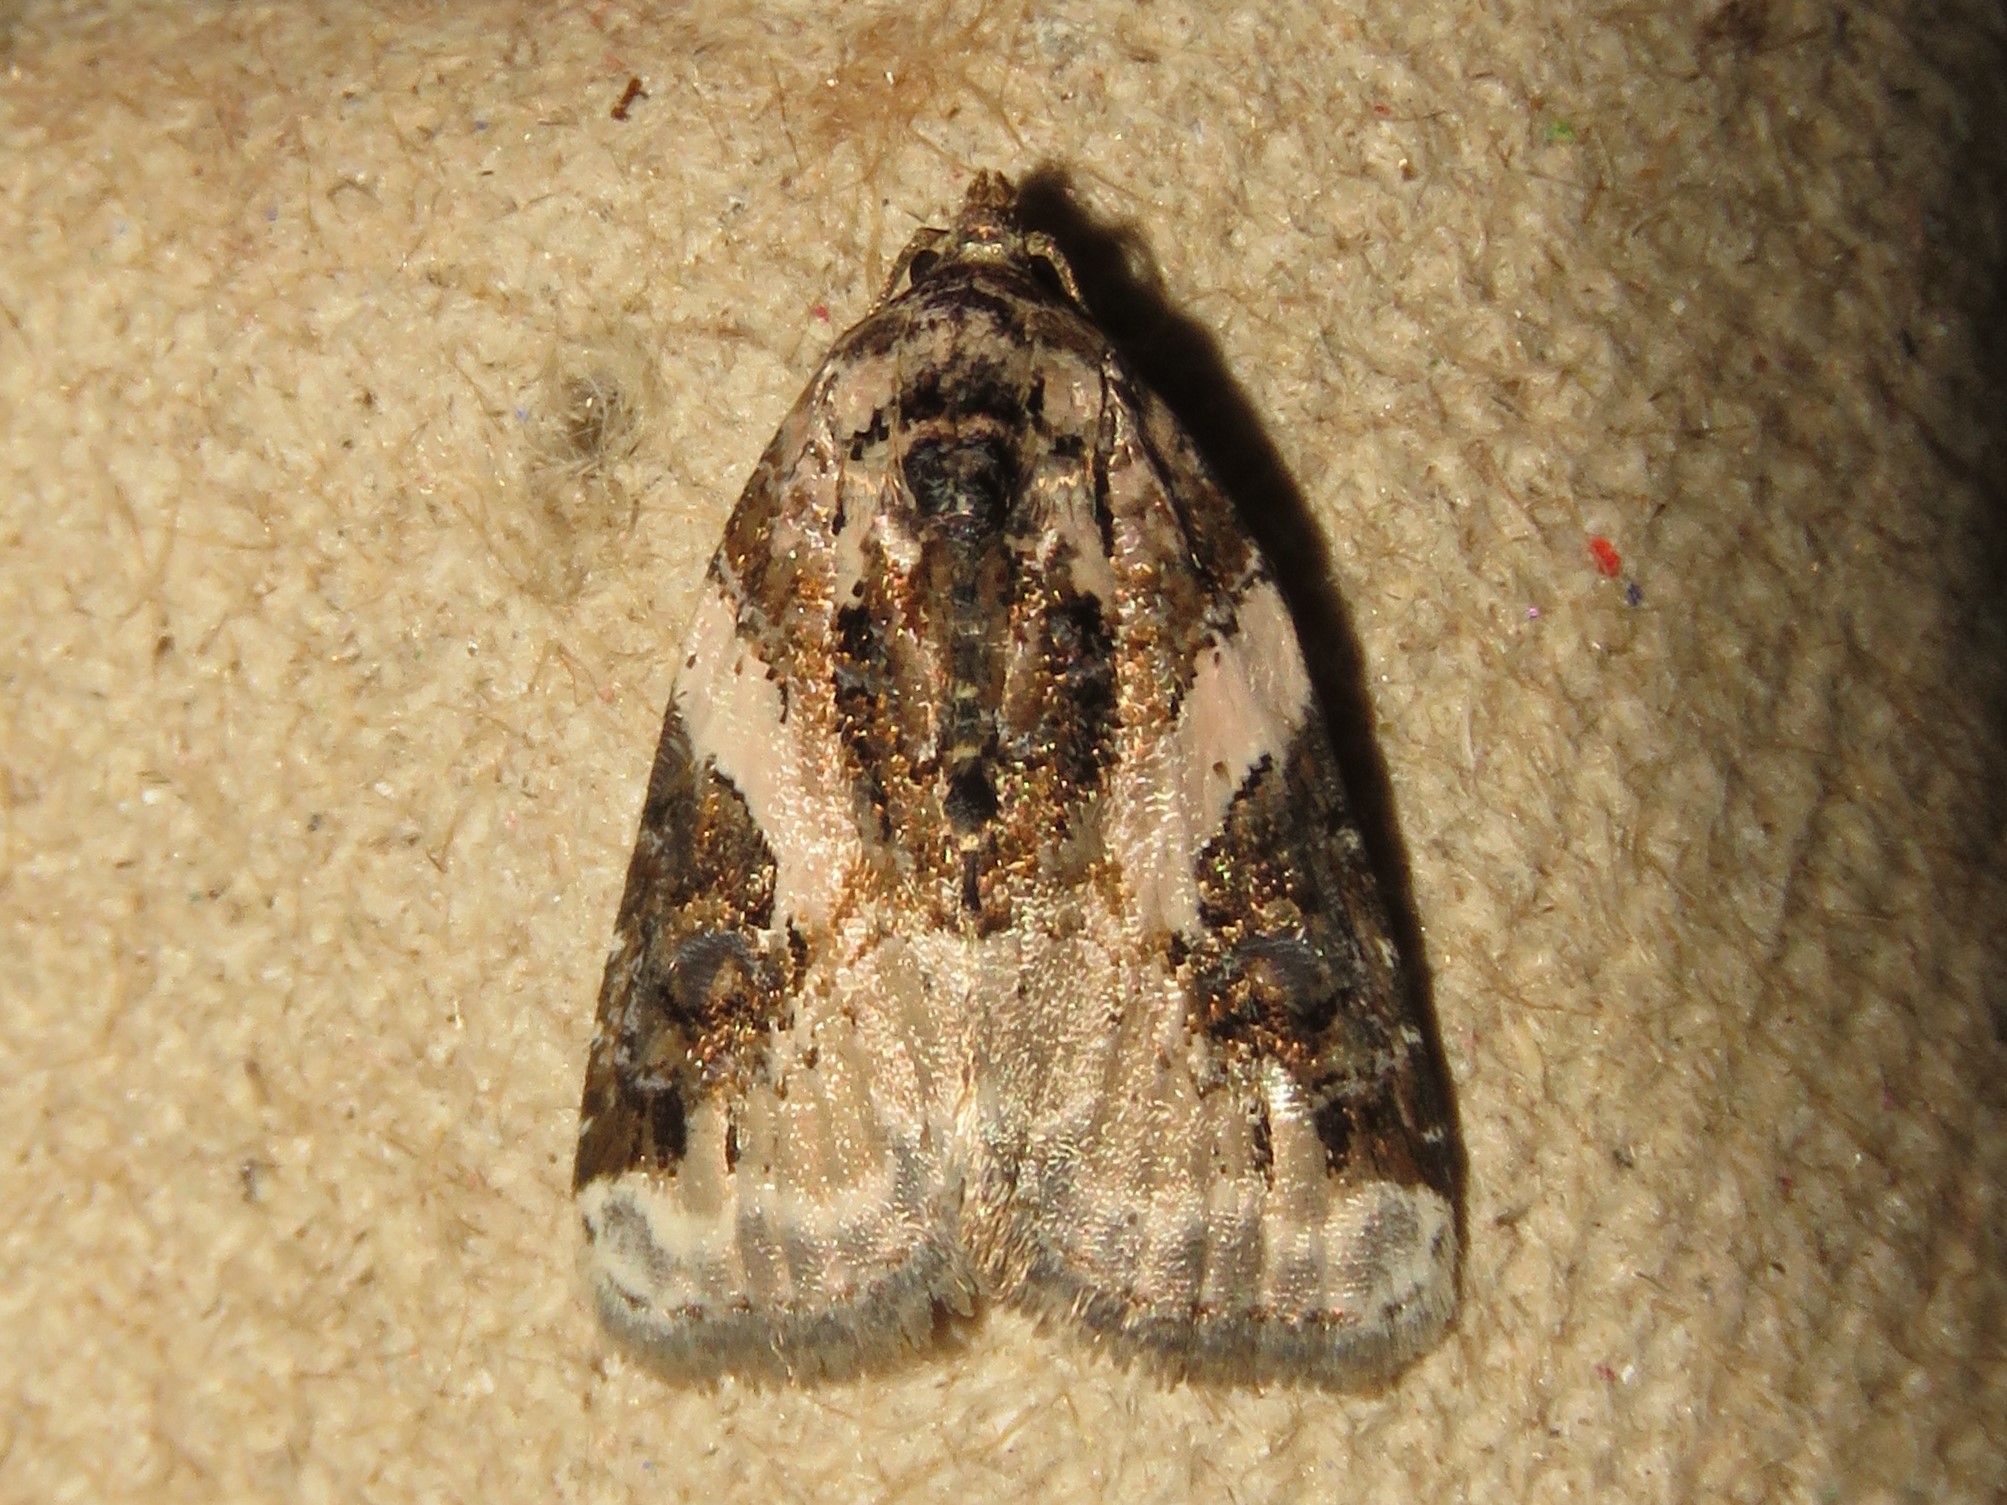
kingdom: Animalia
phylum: Arthropoda
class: Insecta
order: Lepidoptera
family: Noctuidae
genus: Pseudeustrotia
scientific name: Pseudeustrotia carneola
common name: Pink-barred lithacodia moth
